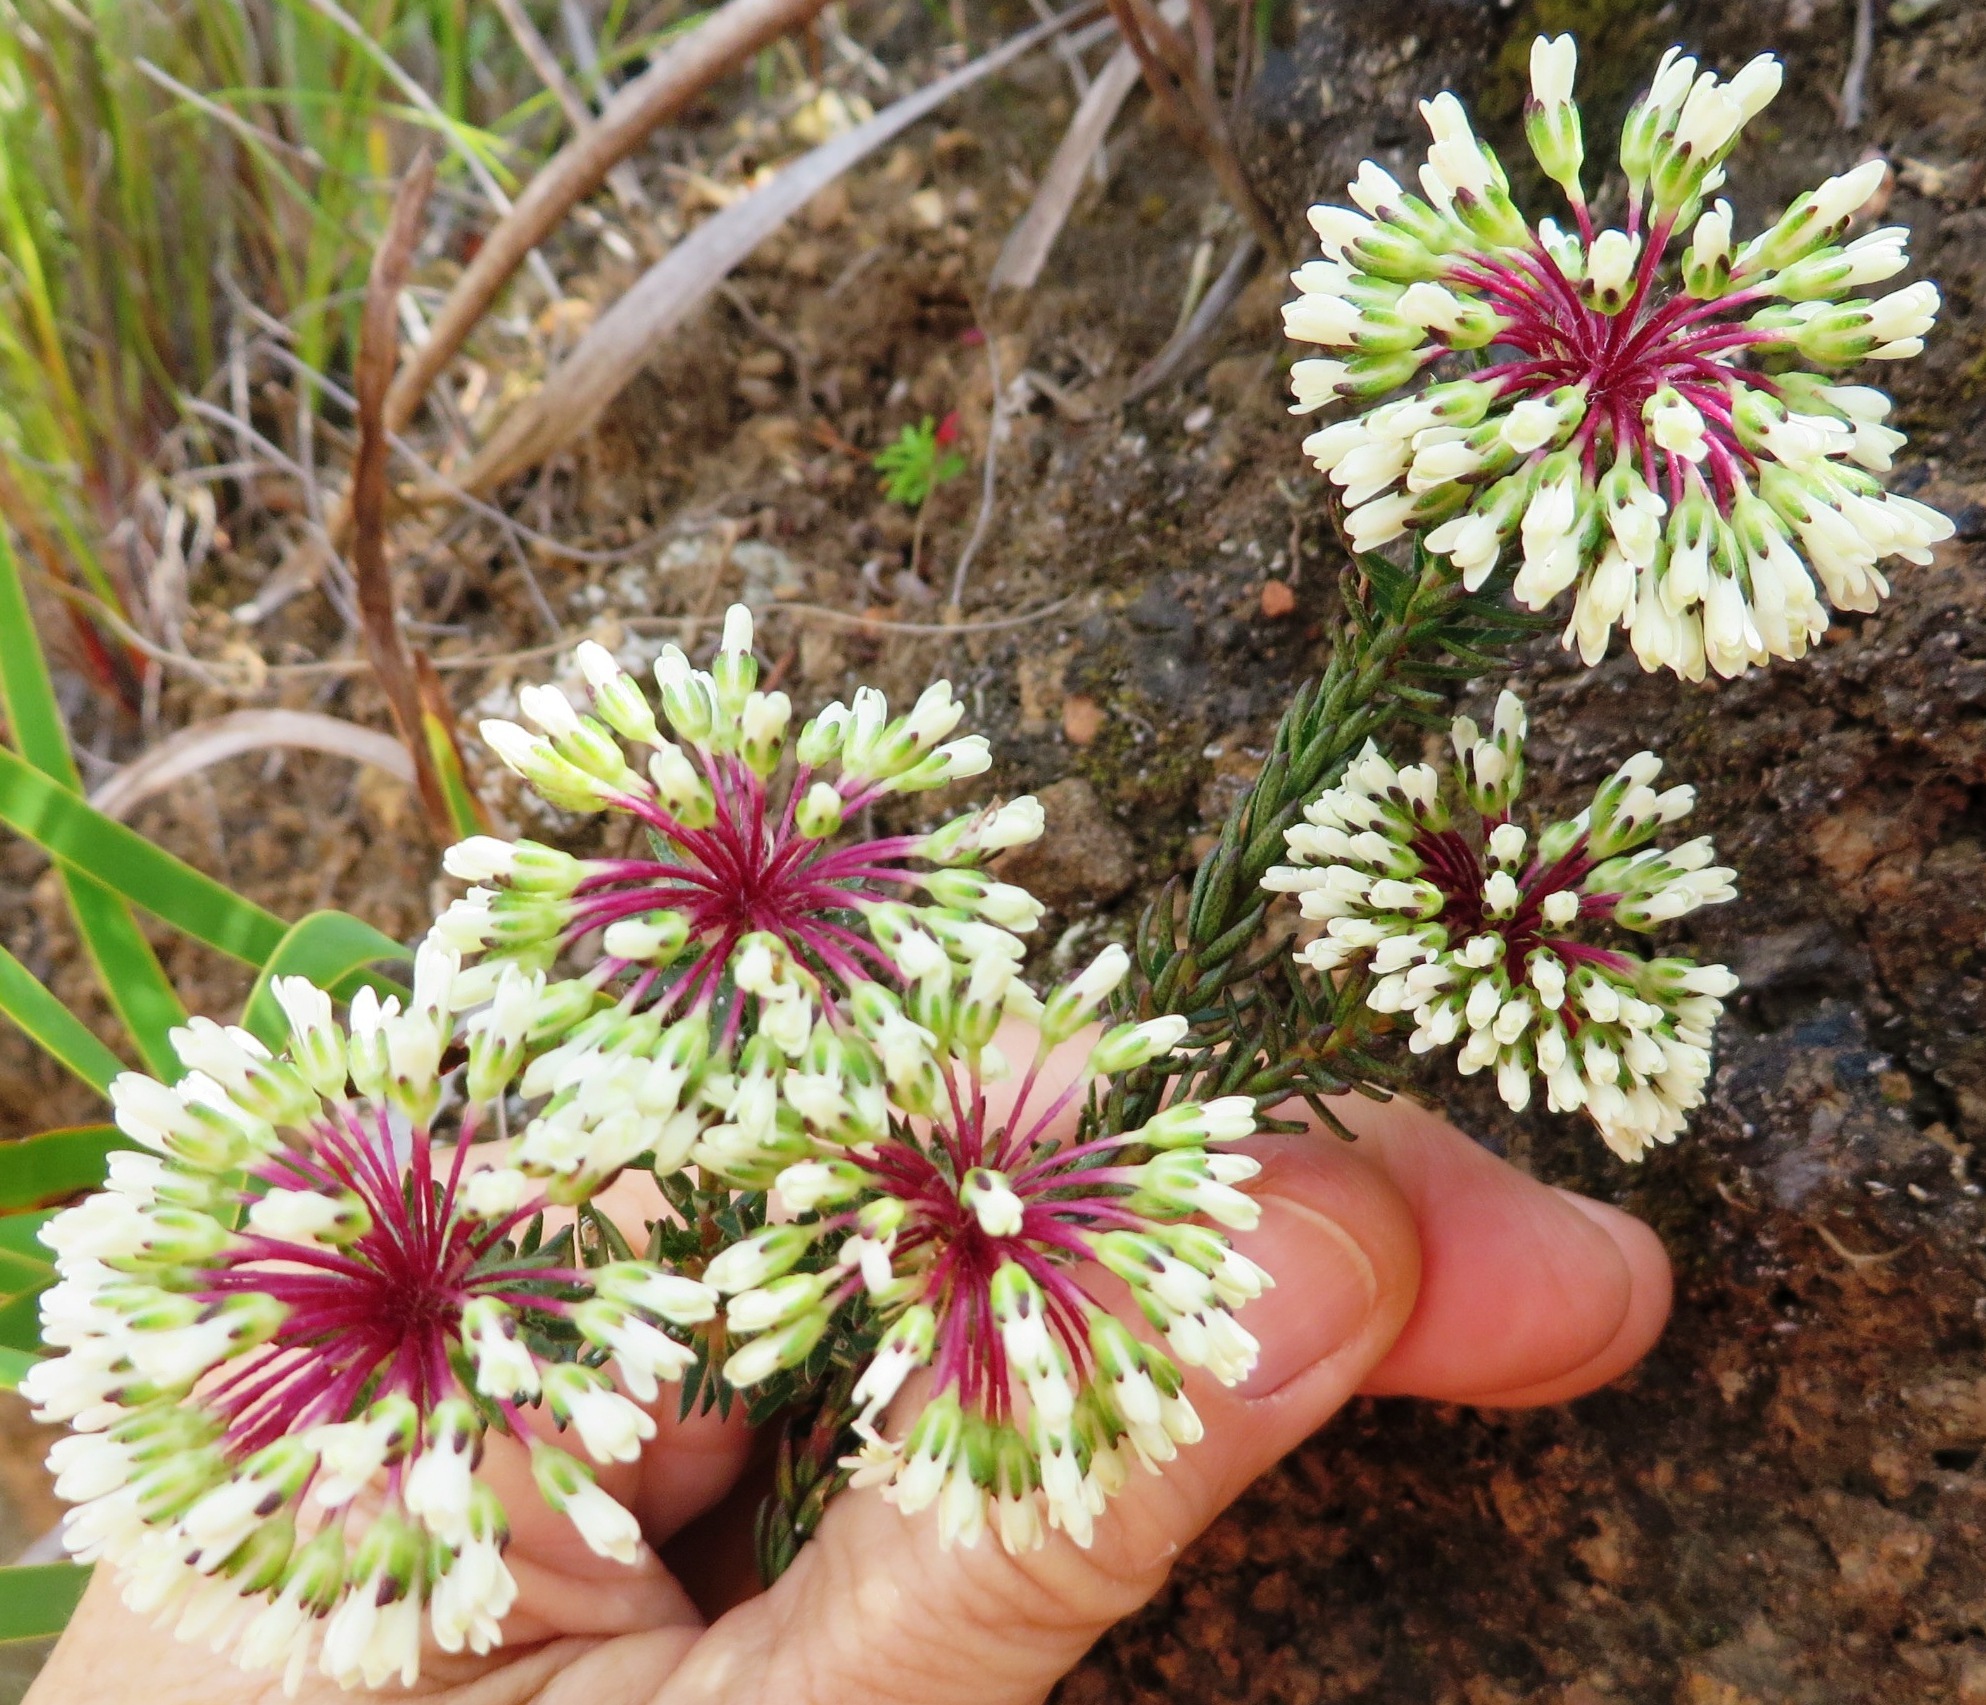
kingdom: Plantae
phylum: Tracheophyta
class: Magnoliopsida
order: Sapindales
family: Rutaceae
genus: Agathosma
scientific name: Agathosma bifida
